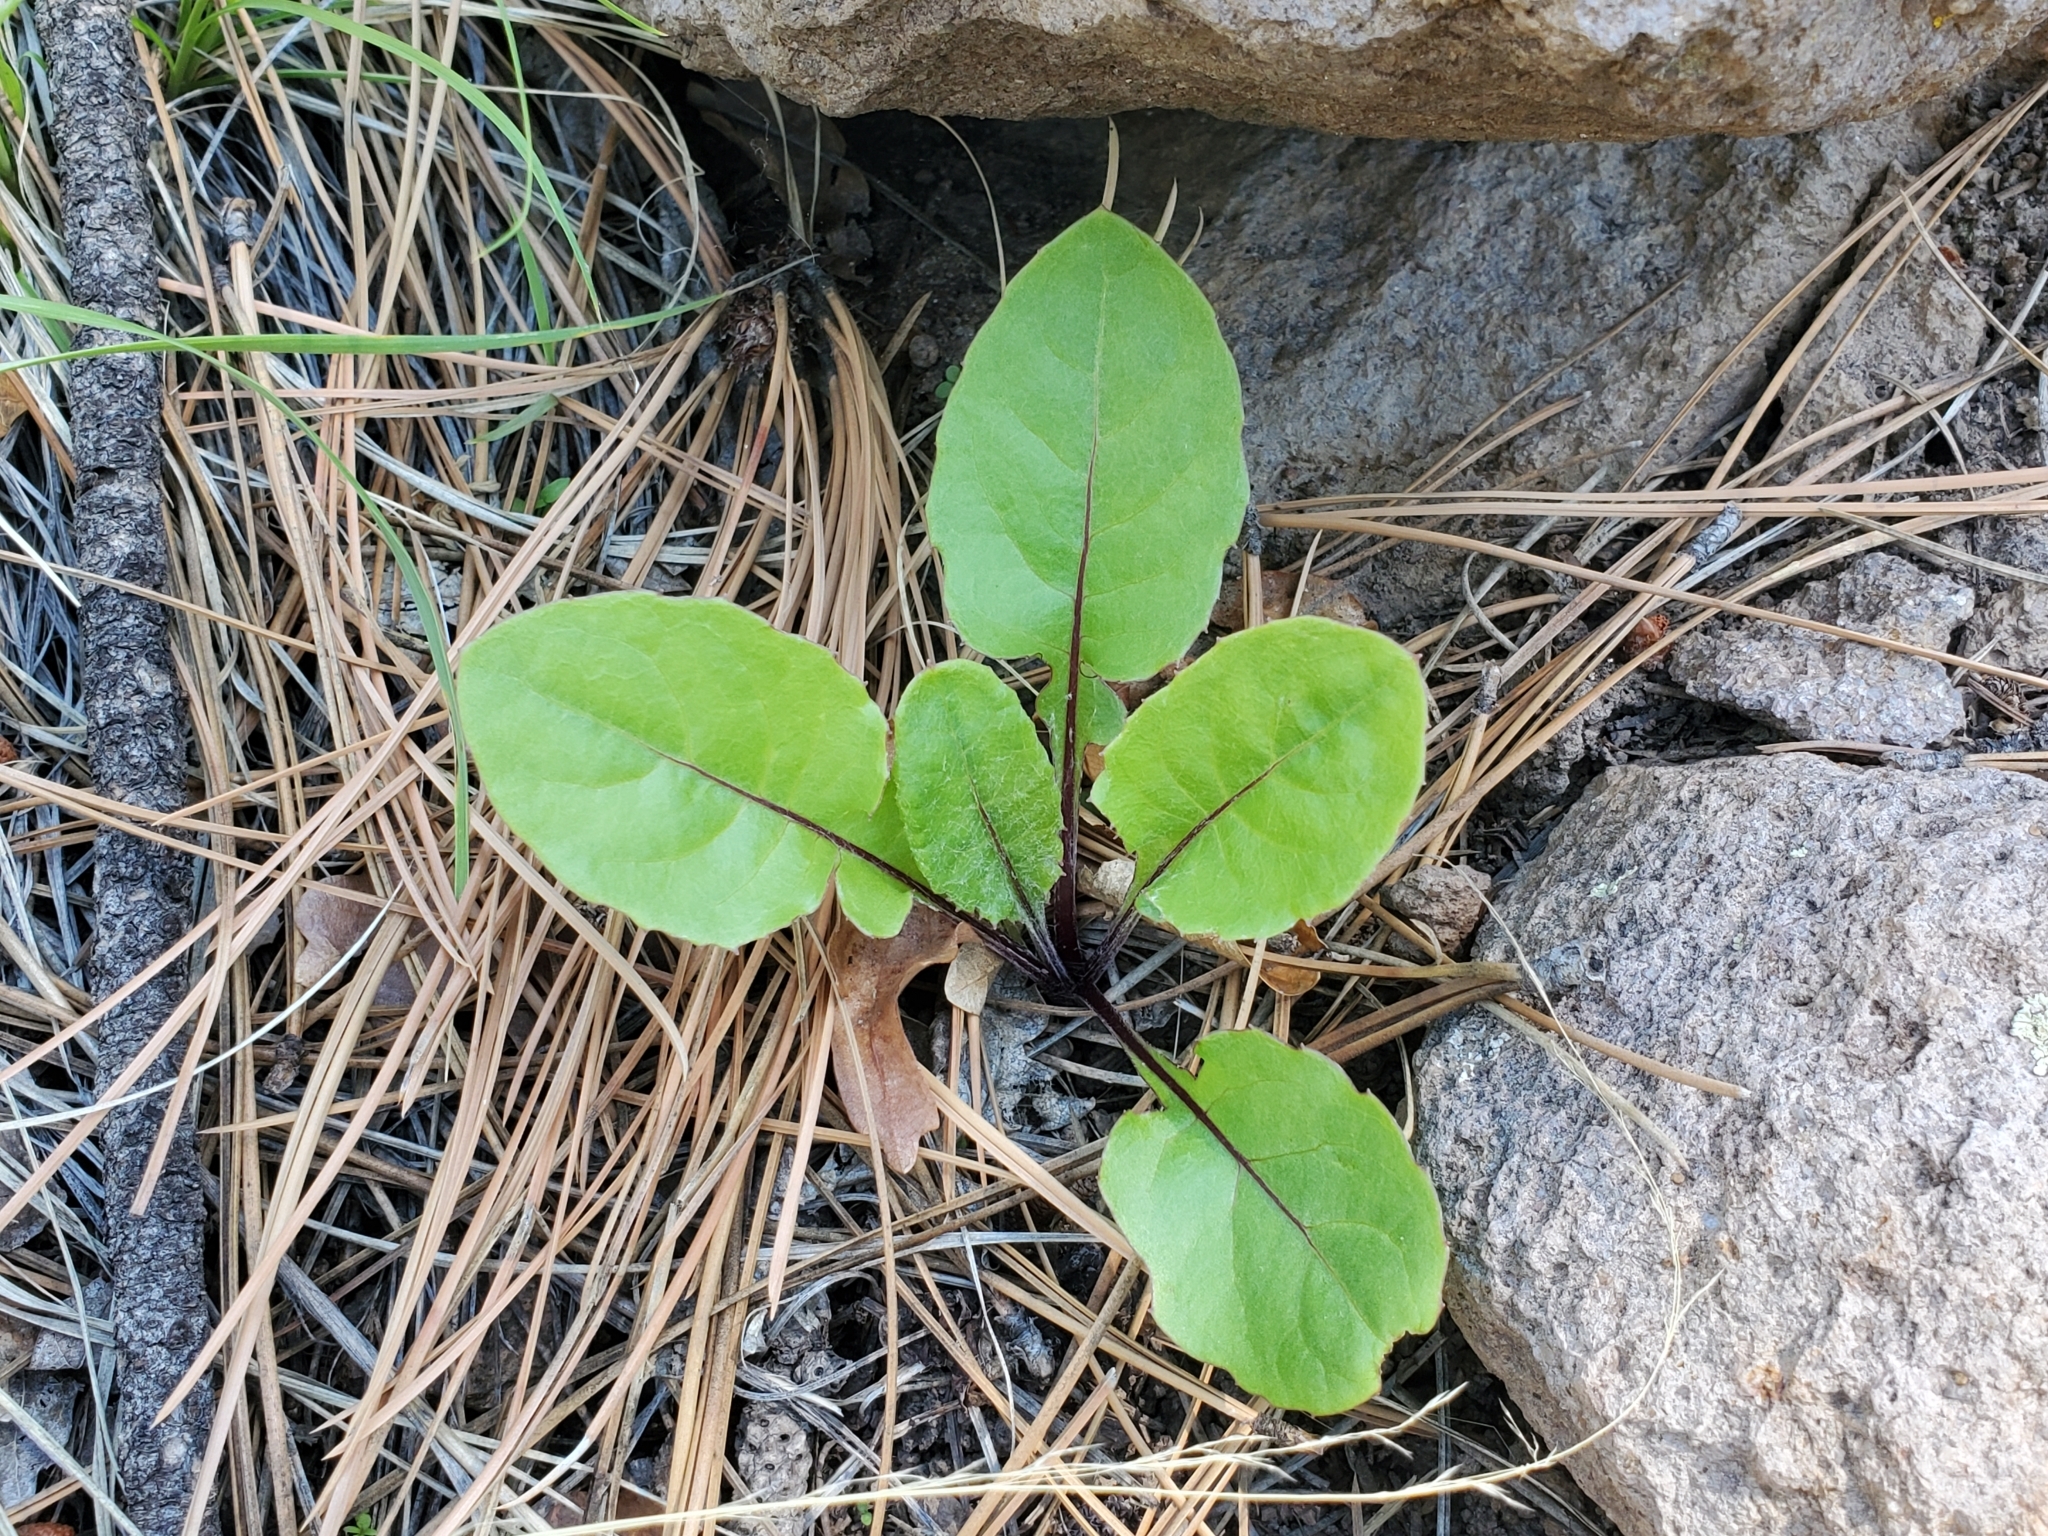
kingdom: Plantae
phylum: Tracheophyta
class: Magnoliopsida
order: Asterales
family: Asteraceae
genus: Leibnitzia
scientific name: Leibnitzia lyrata
